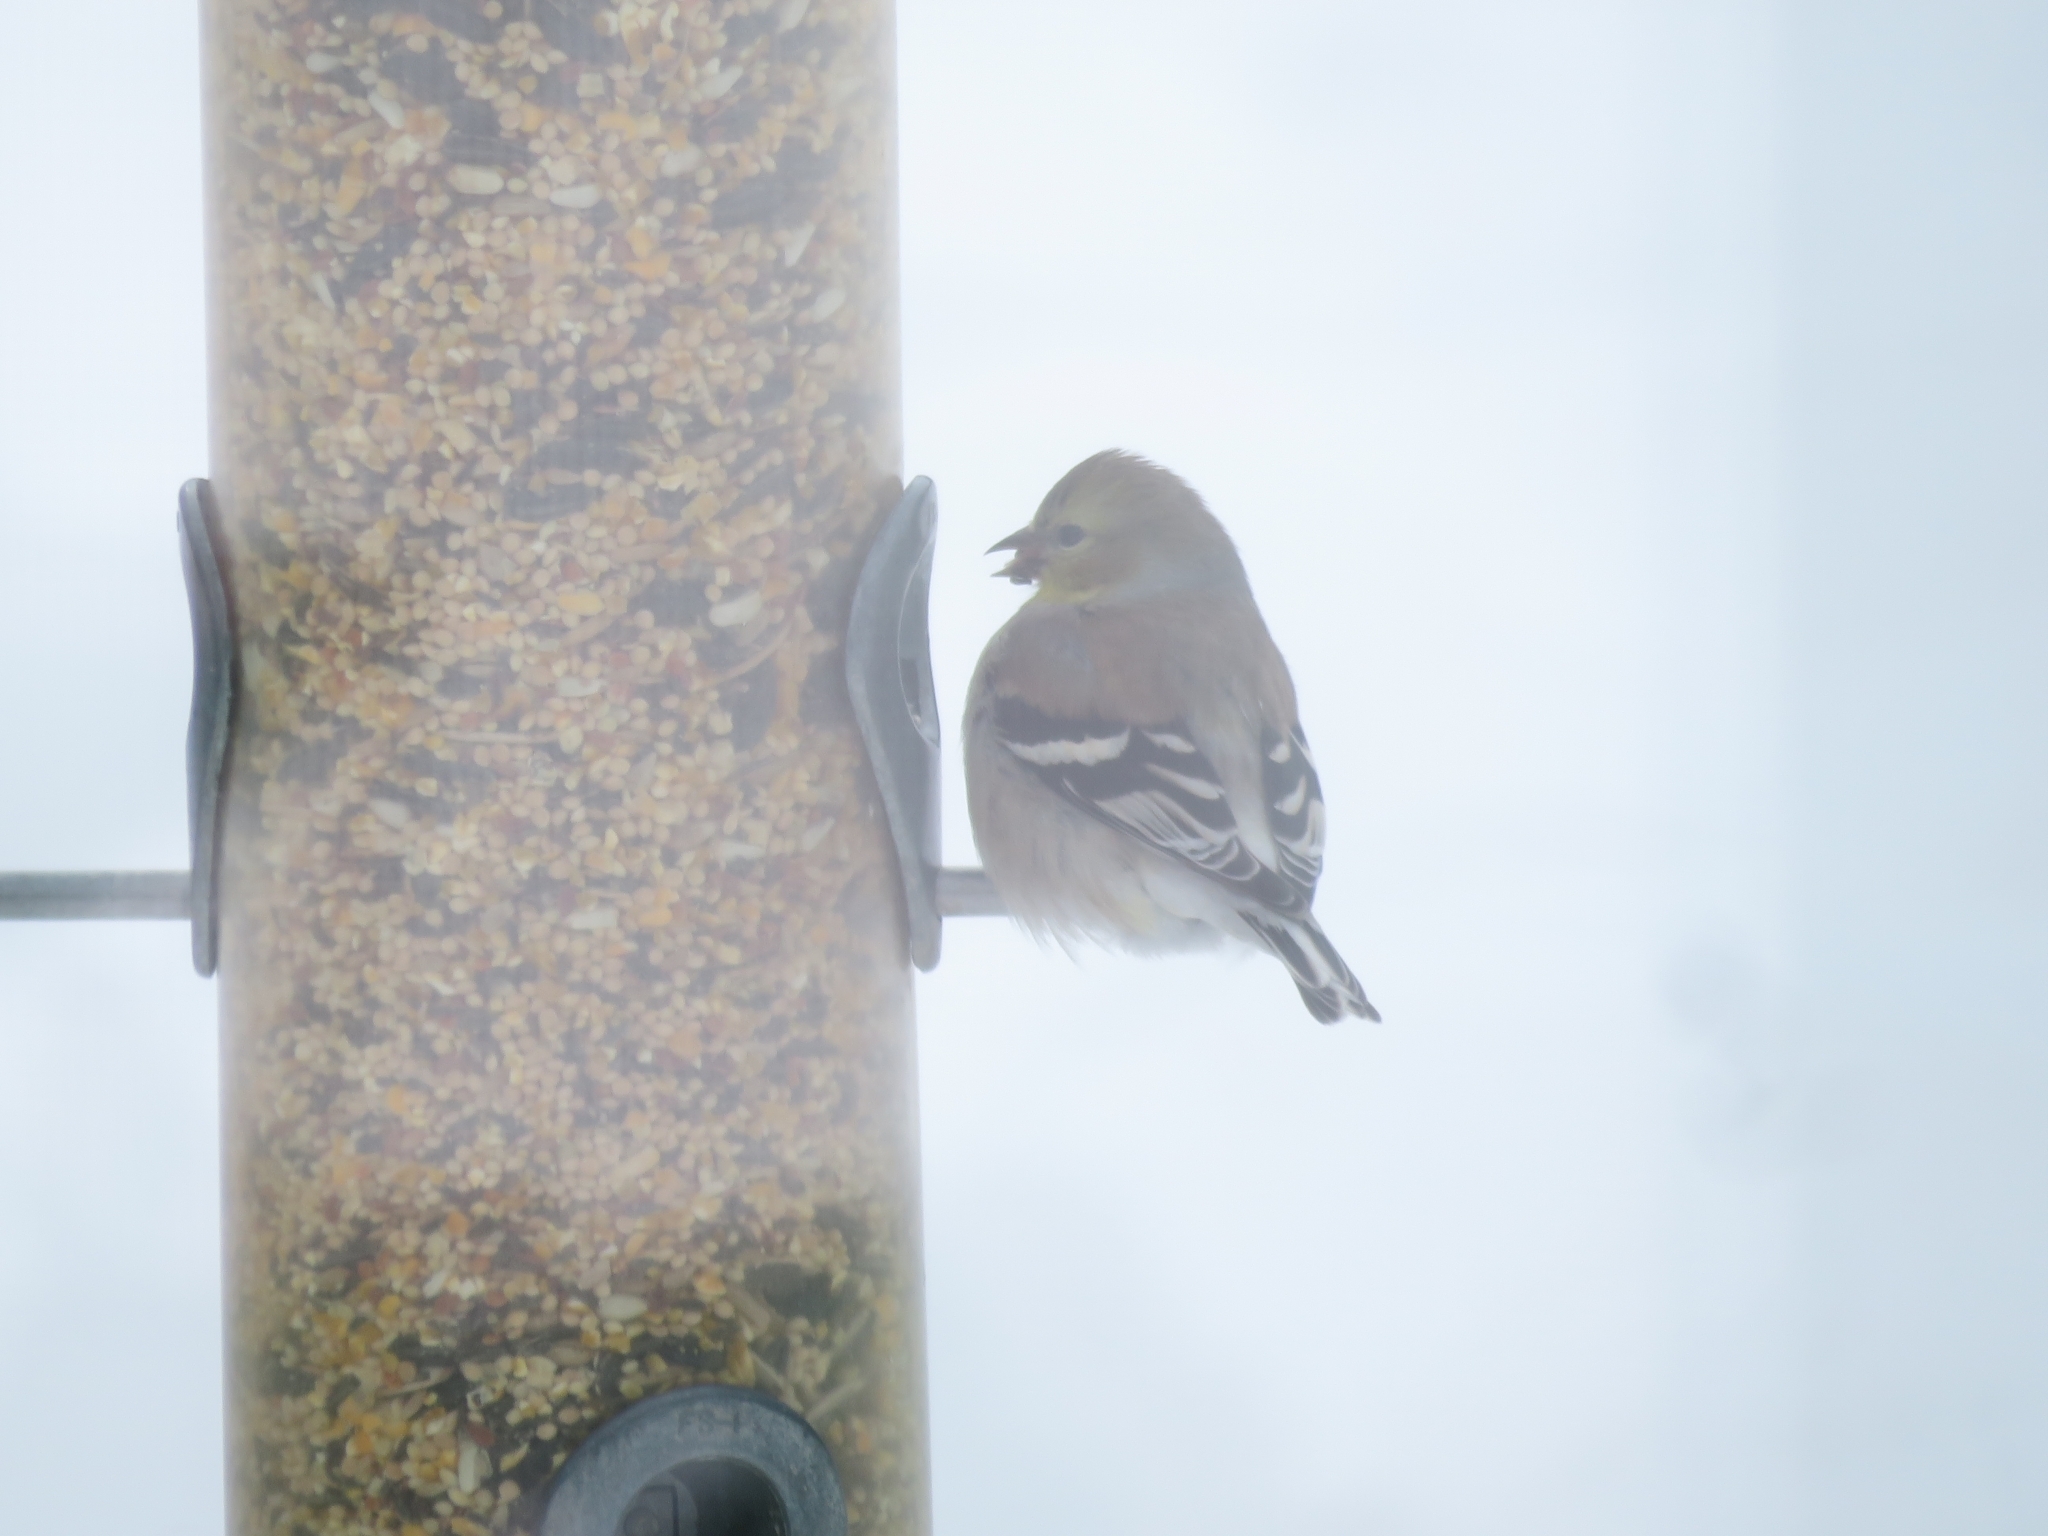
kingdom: Animalia
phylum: Chordata
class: Aves
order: Passeriformes
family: Fringillidae
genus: Spinus
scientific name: Spinus tristis
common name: American goldfinch
